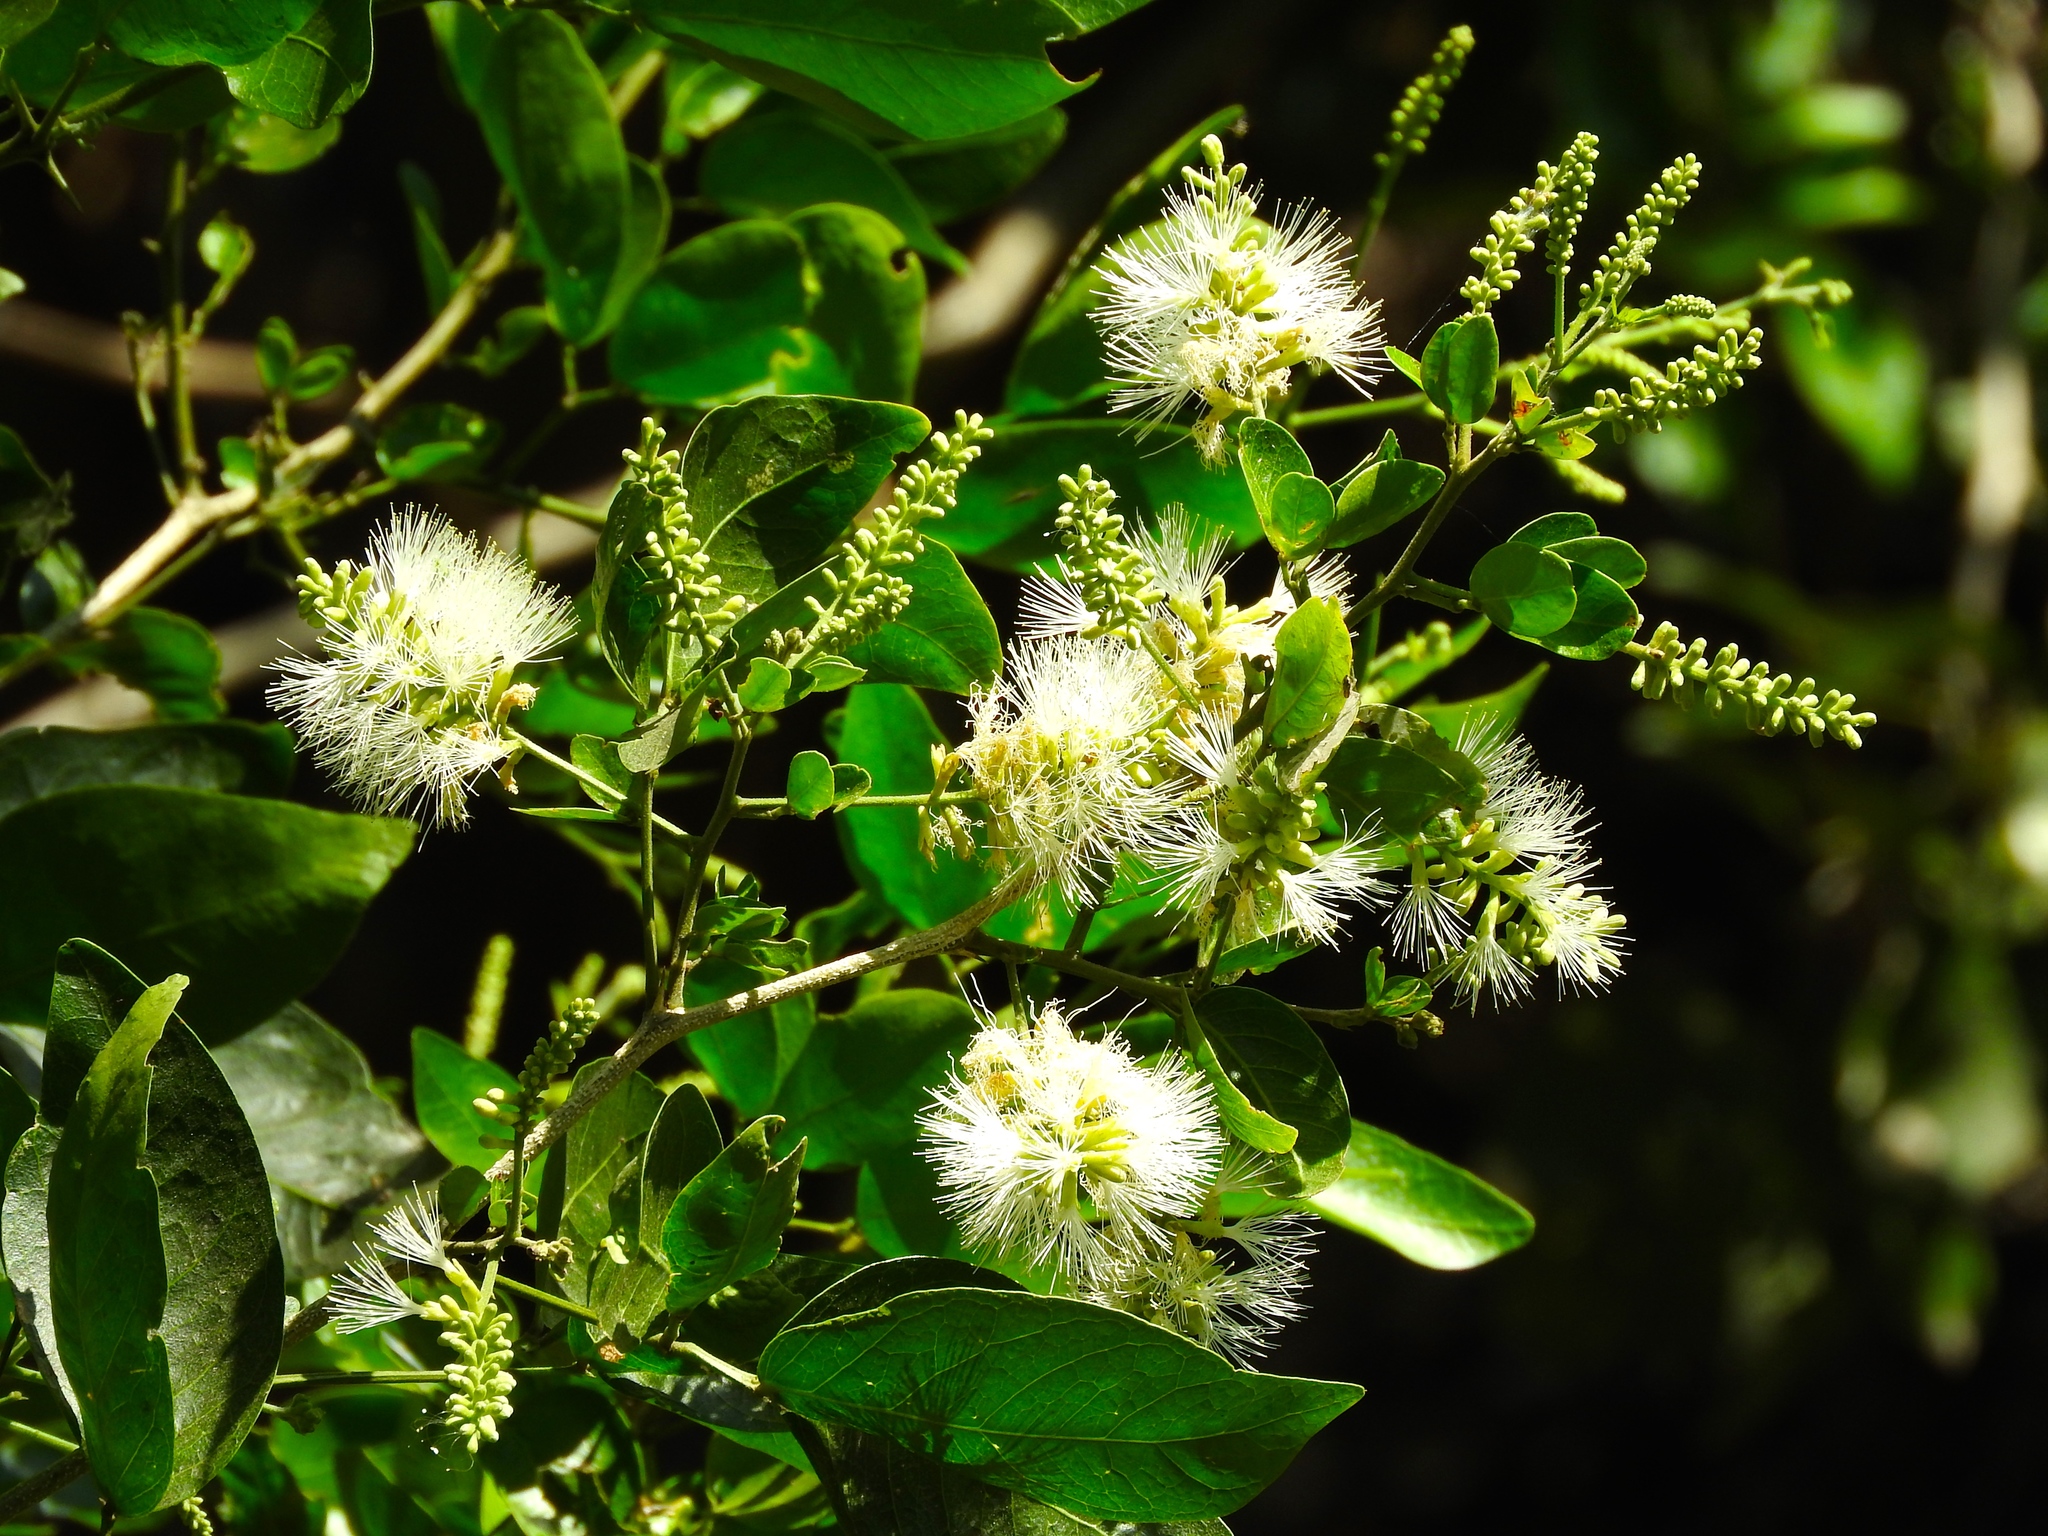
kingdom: Plantae
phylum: Tracheophyta
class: Magnoliopsida
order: Fabales
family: Fabaceae
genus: Pithecellobium
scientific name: Pithecellobium lanceolatum
